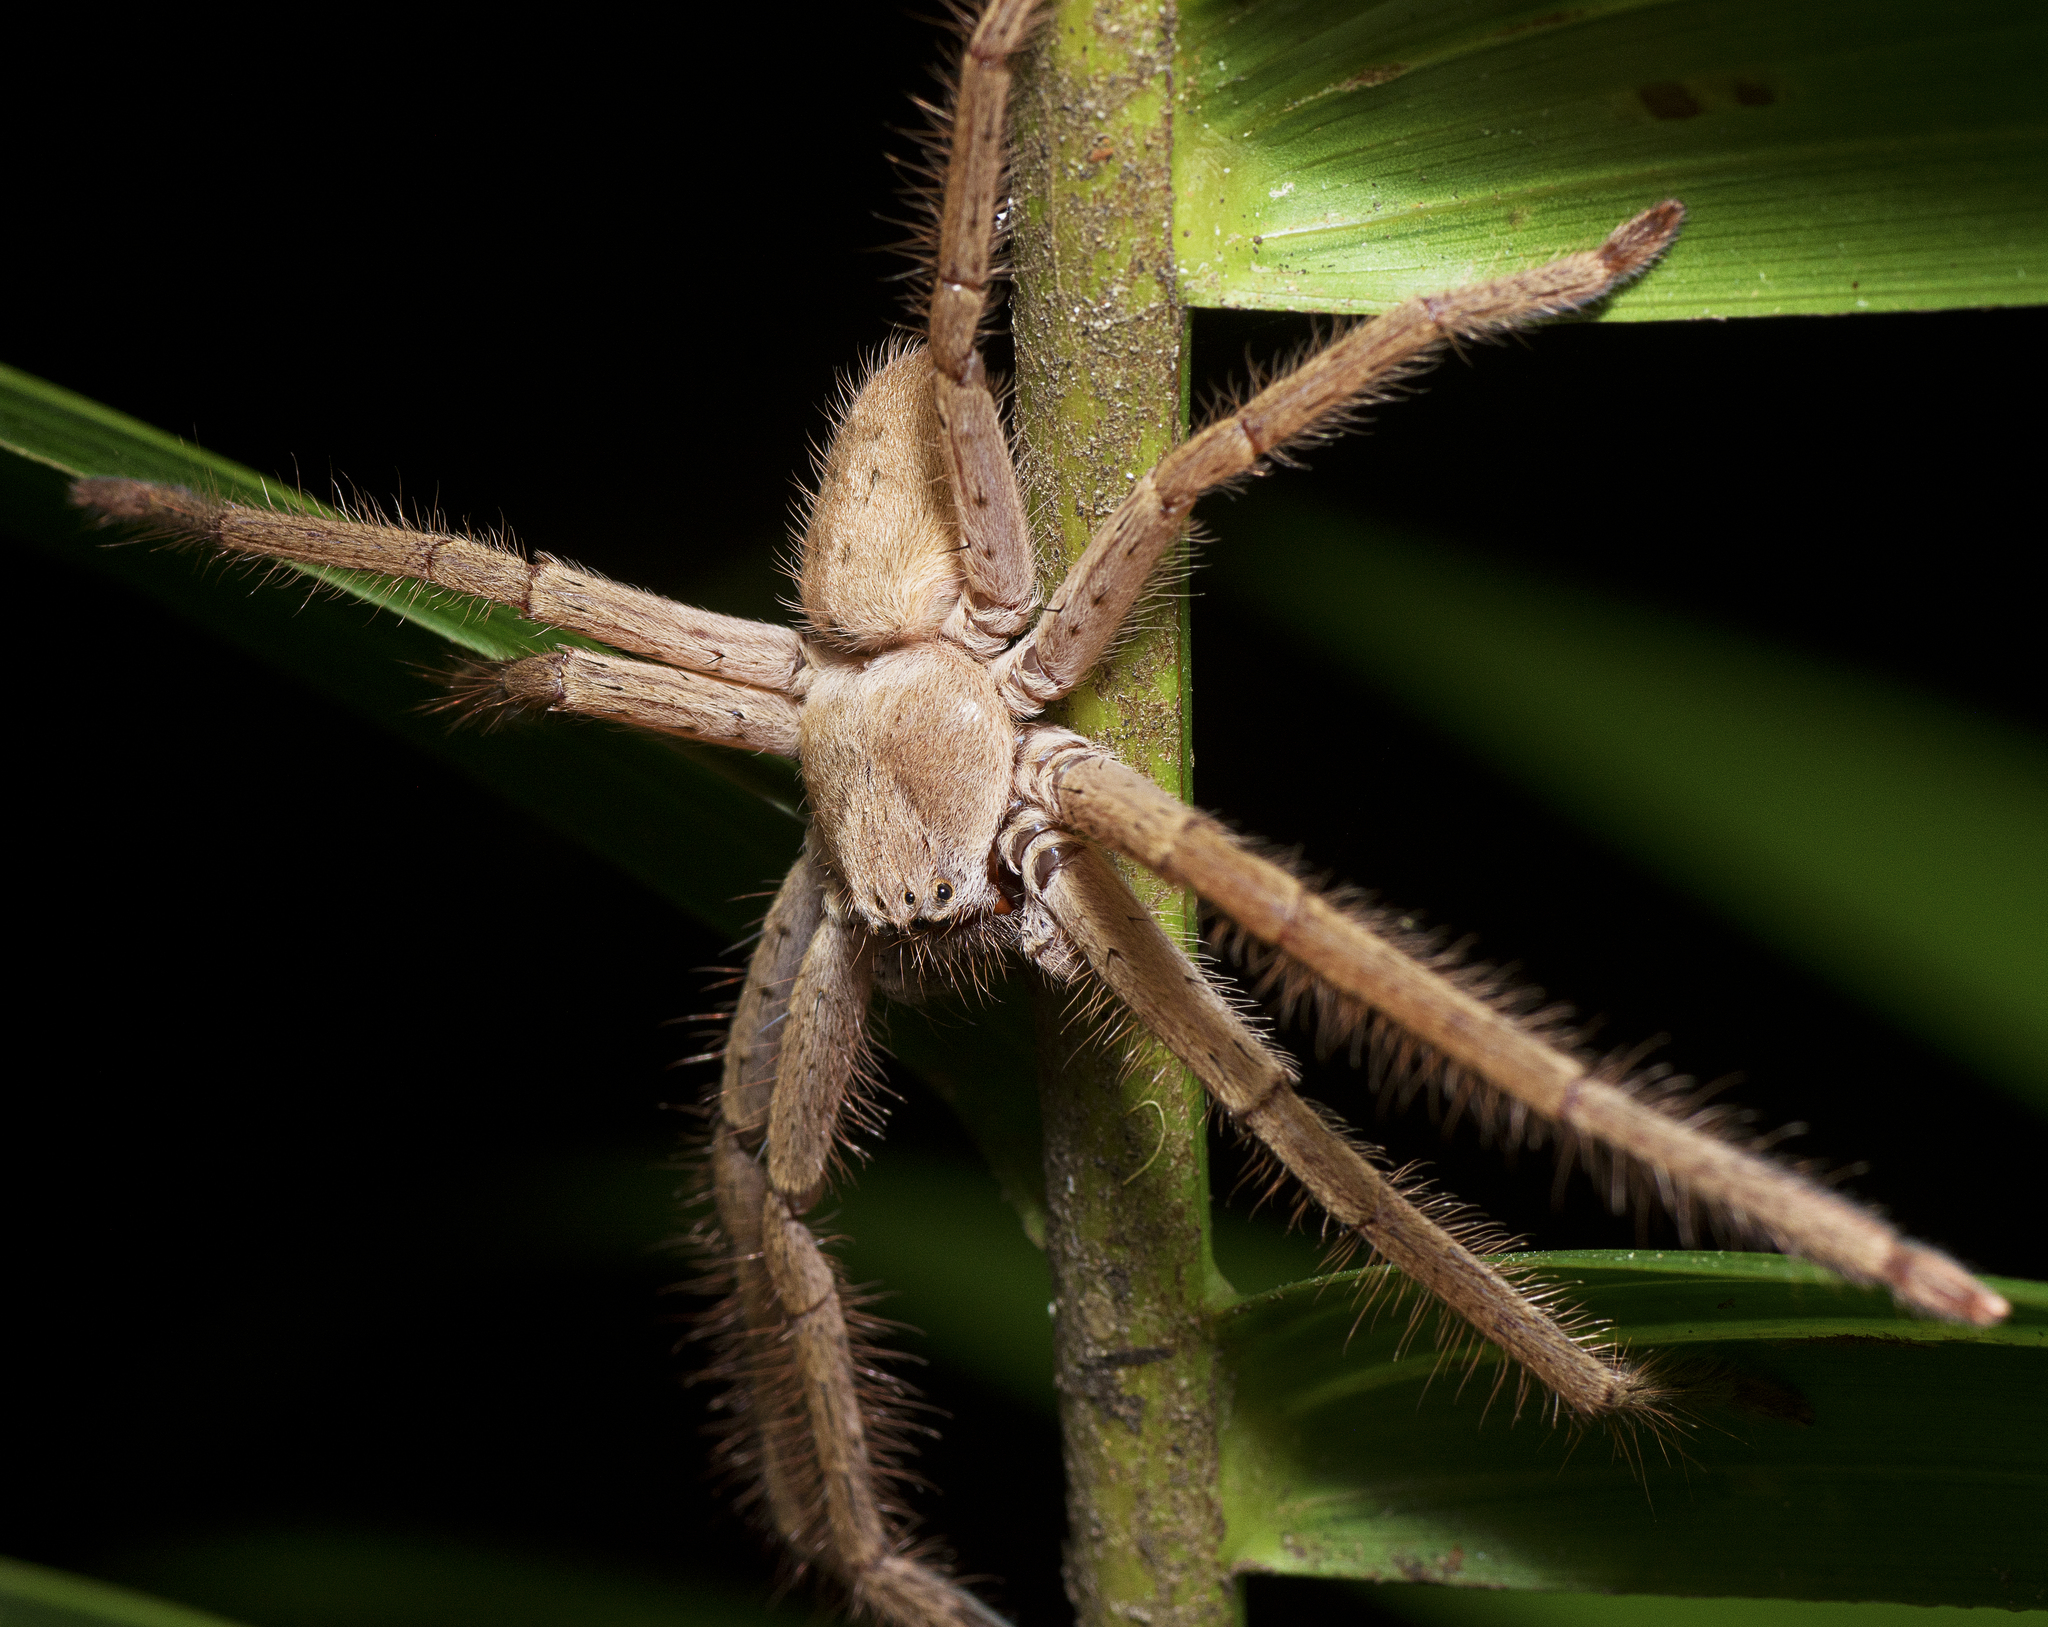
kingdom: Animalia
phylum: Arthropoda
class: Arachnida
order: Araneae
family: Sparassidae
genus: Isopeda
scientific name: Isopeda queenslandensis
